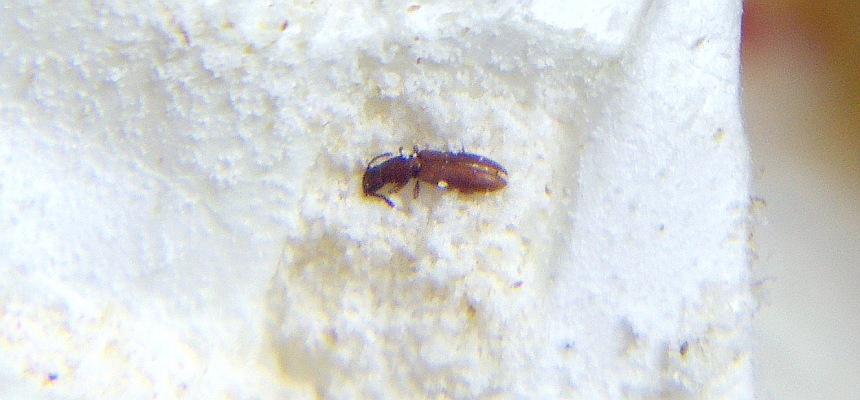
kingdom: Animalia
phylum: Arthropoda
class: Insecta
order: Coleoptera
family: Silvanidae
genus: Oryzaephilus
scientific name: Oryzaephilus surinamensis
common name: Sawtoothed grain beetle
